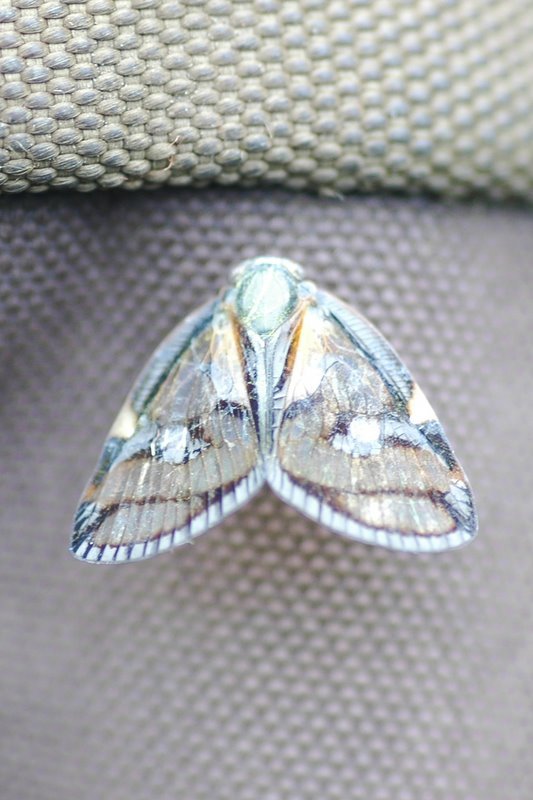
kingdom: Animalia
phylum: Arthropoda
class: Insecta
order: Hemiptera
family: Ricaniidae
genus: Euricania
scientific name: Euricania ocella
